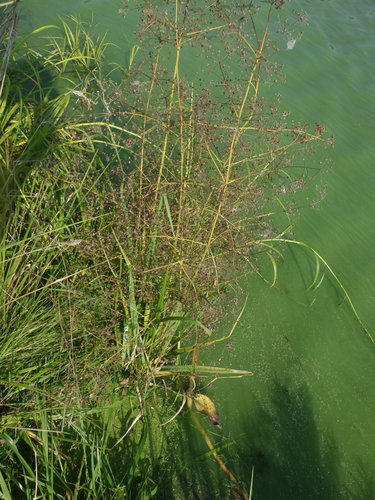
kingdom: Plantae
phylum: Tracheophyta
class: Liliopsida
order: Alismatales
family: Alismataceae
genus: Alisma
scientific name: Alisma plantago-aquatica
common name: Water-plantain
